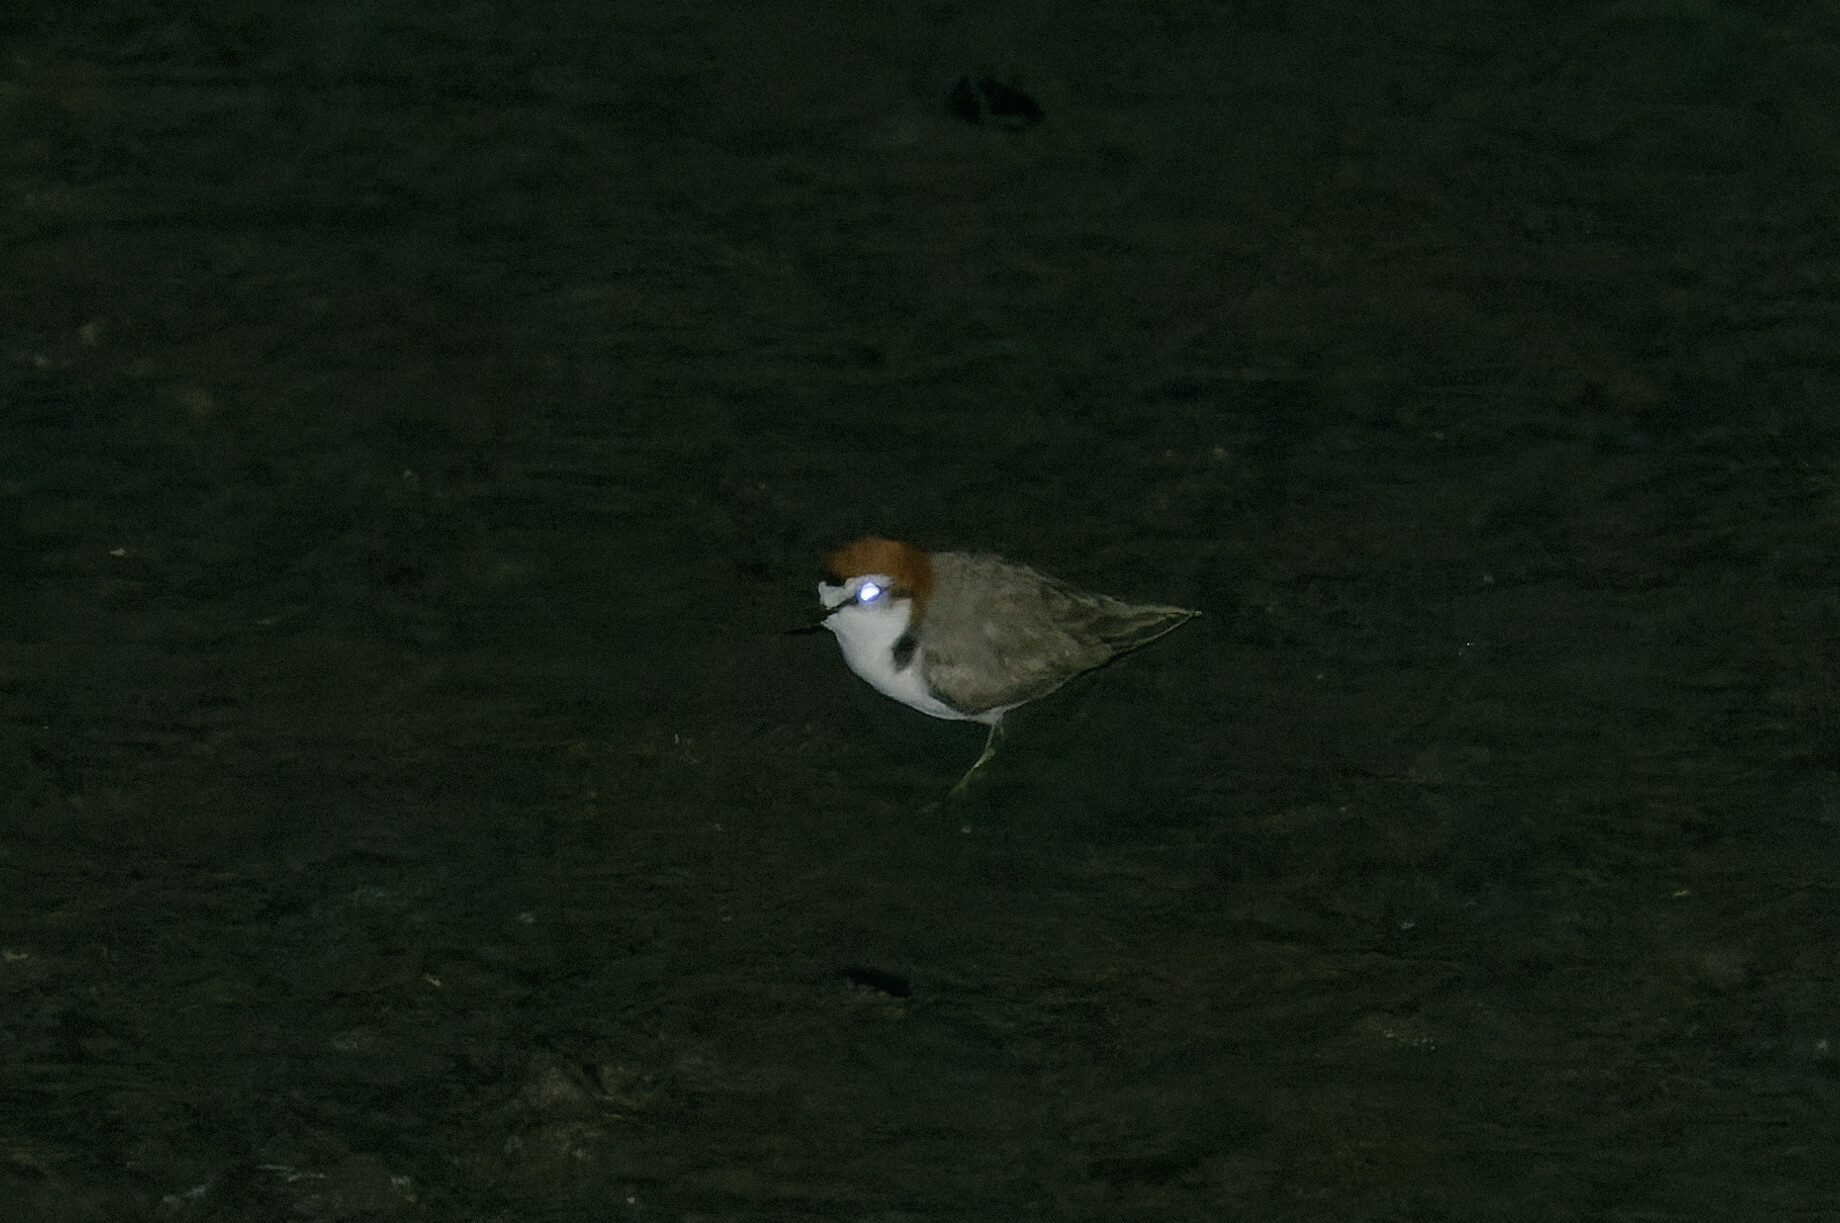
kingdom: Animalia
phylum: Chordata
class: Aves
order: Charadriiformes
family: Charadriidae
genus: Anarhynchus
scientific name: Anarhynchus
